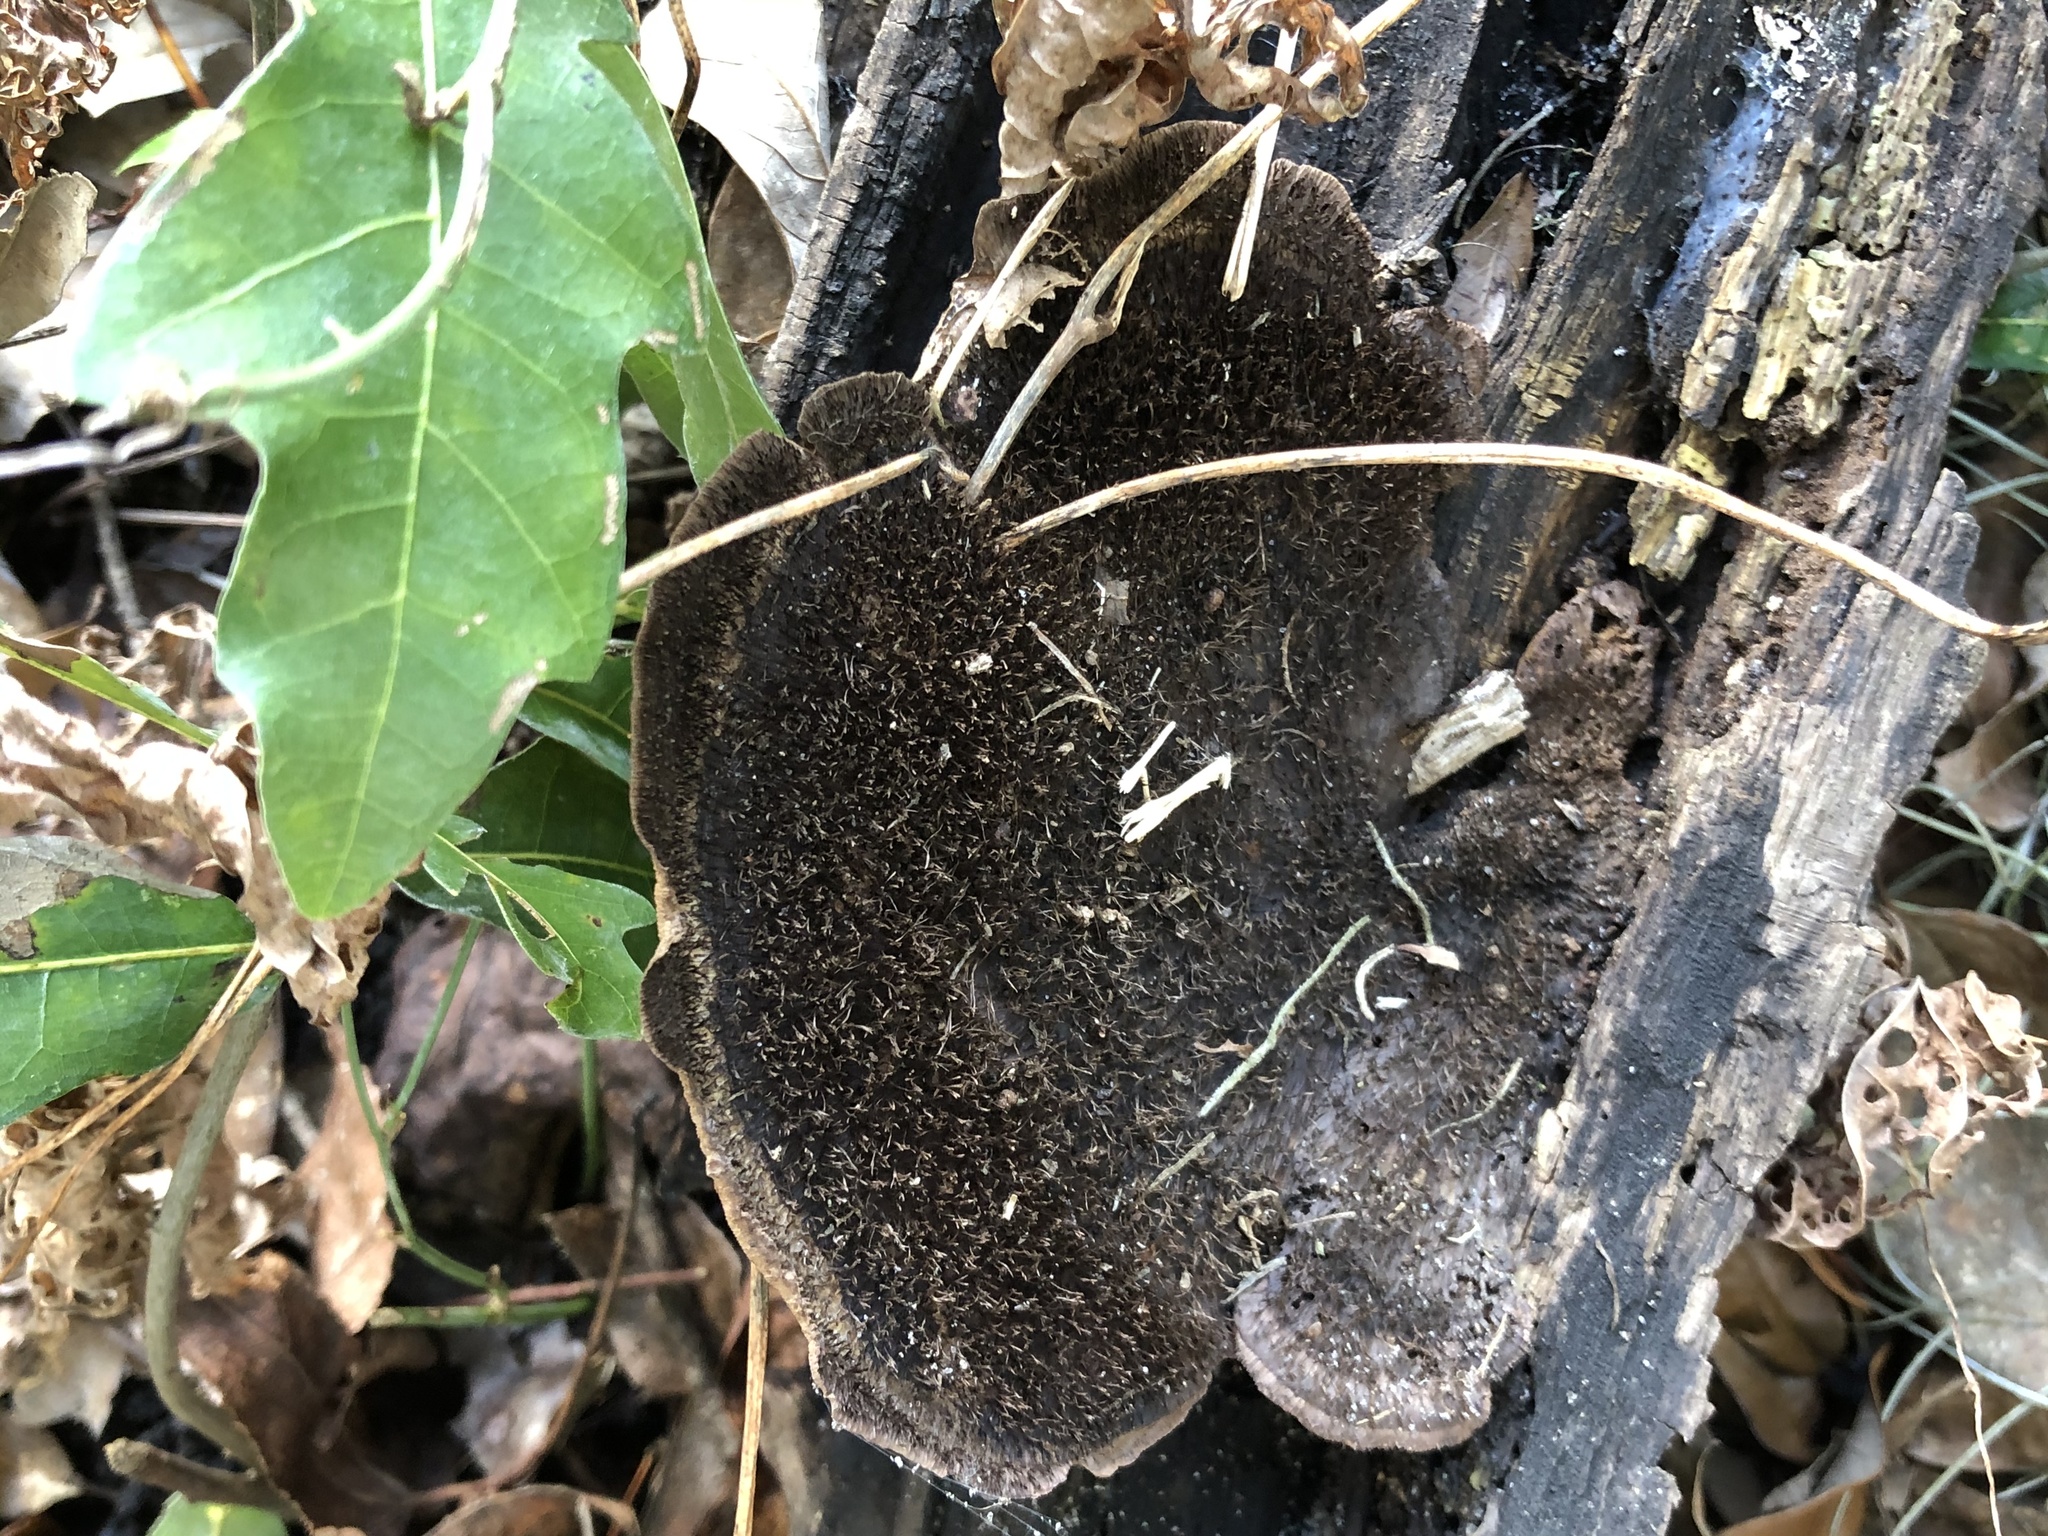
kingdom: Fungi
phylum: Basidiomycota
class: Agaricomycetes
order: Polyporales
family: Cerrenaceae
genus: Cerrena
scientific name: Cerrena hydnoides
